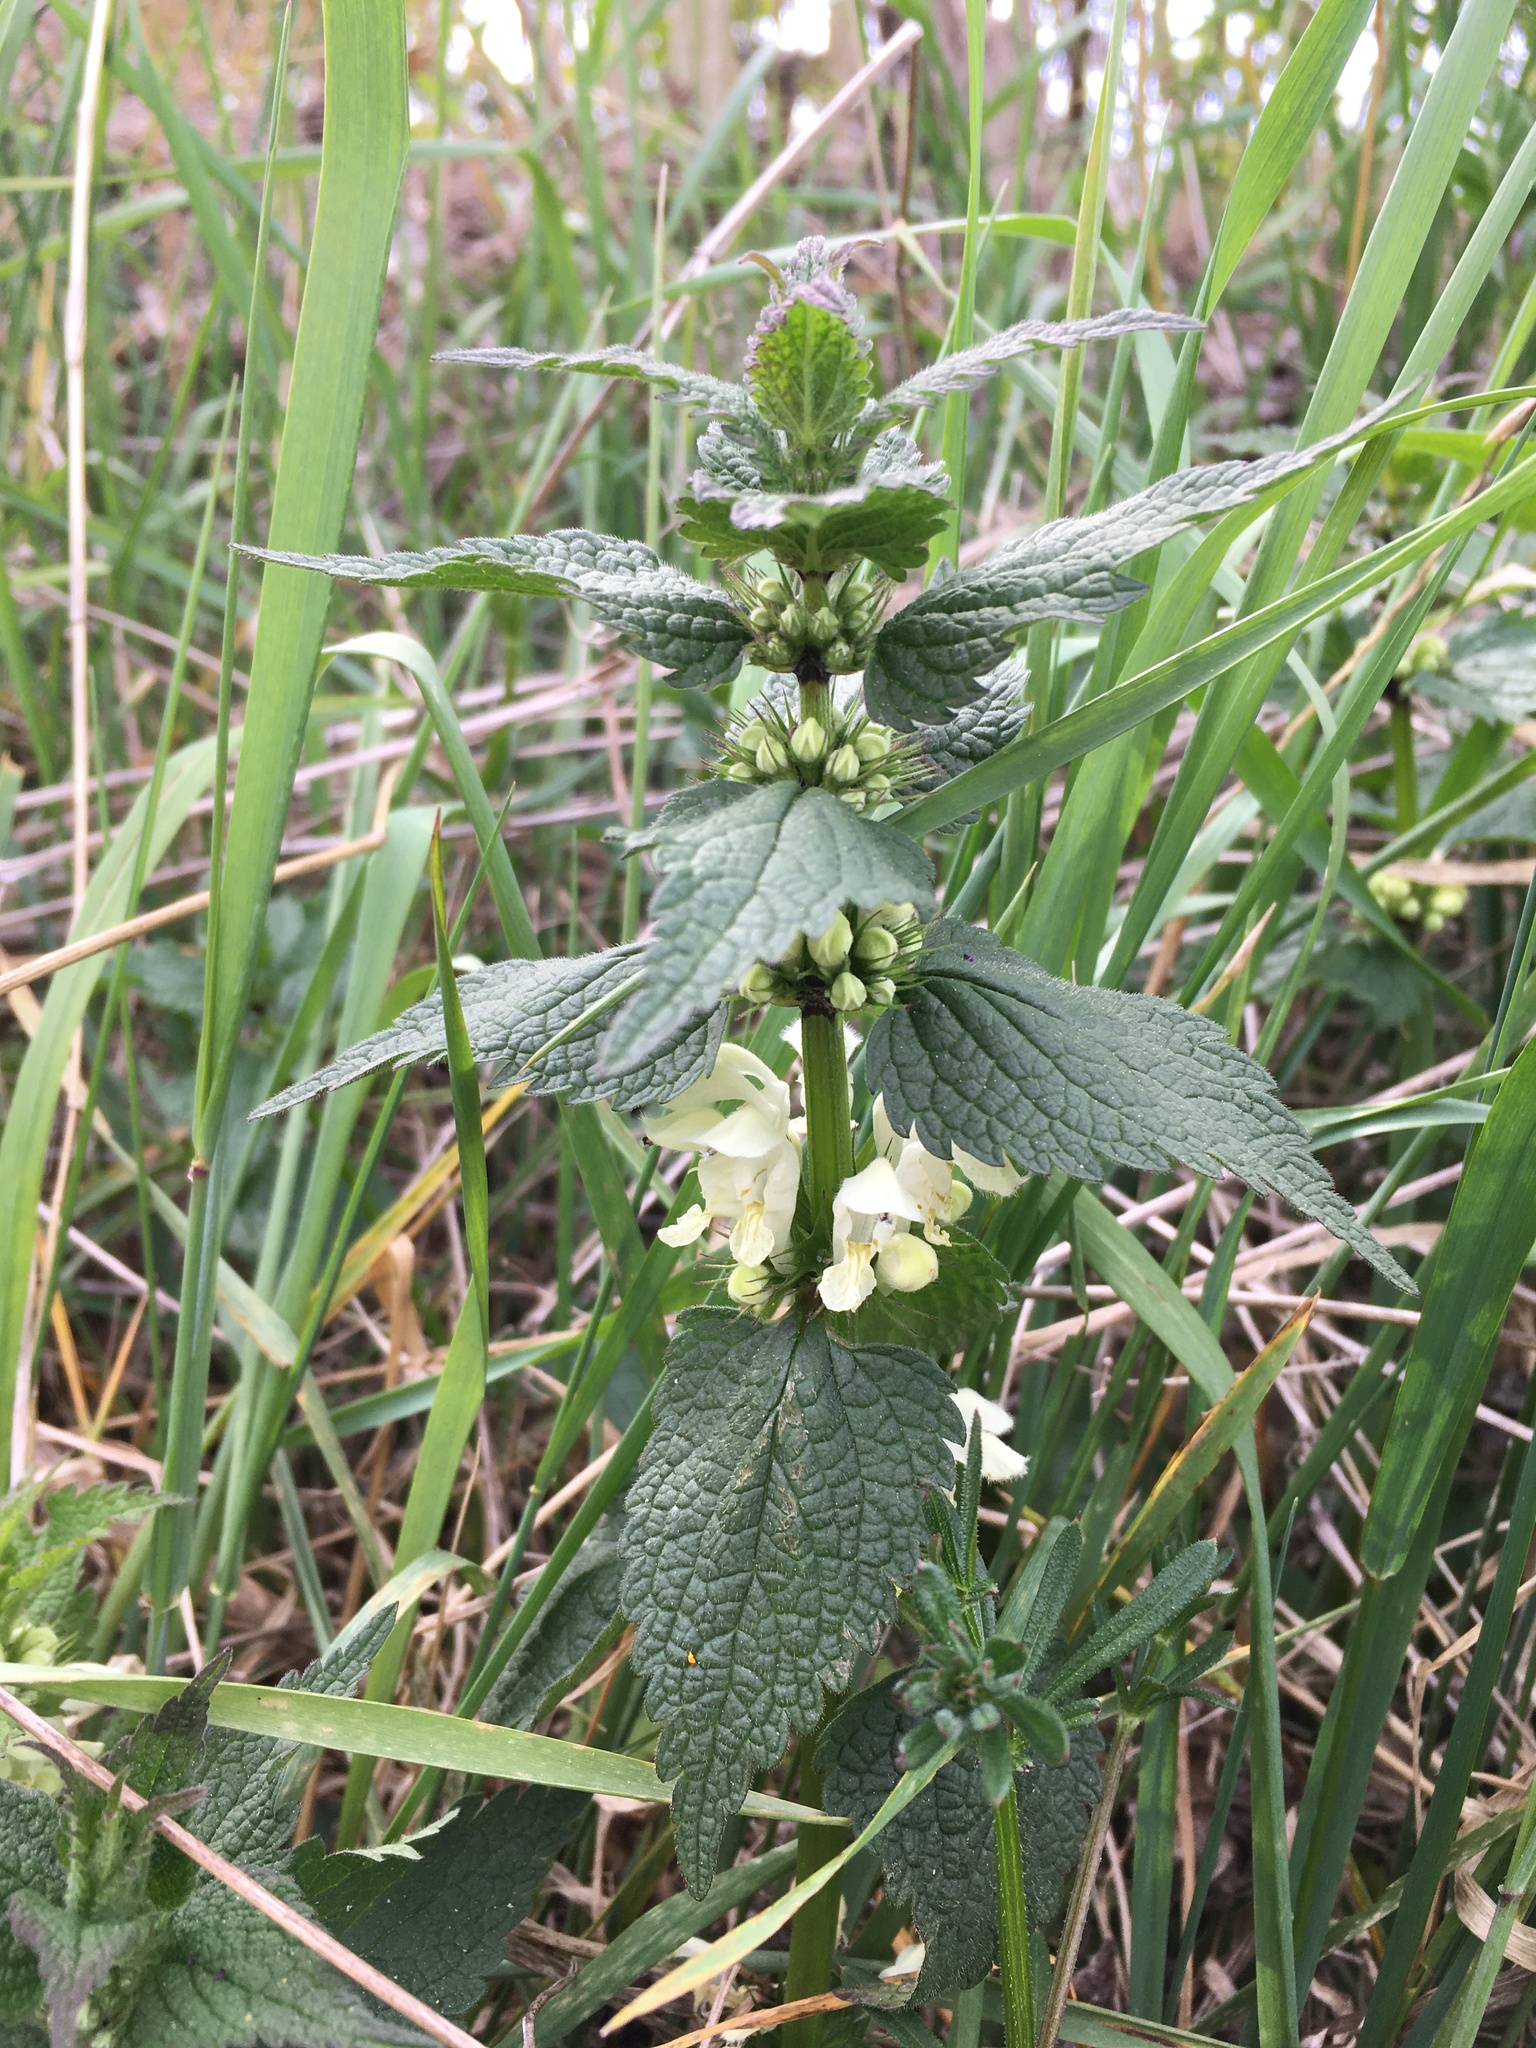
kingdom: Plantae
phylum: Tracheophyta
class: Magnoliopsida
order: Lamiales
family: Lamiaceae
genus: Lamium
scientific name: Lamium album
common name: White dead-nettle
